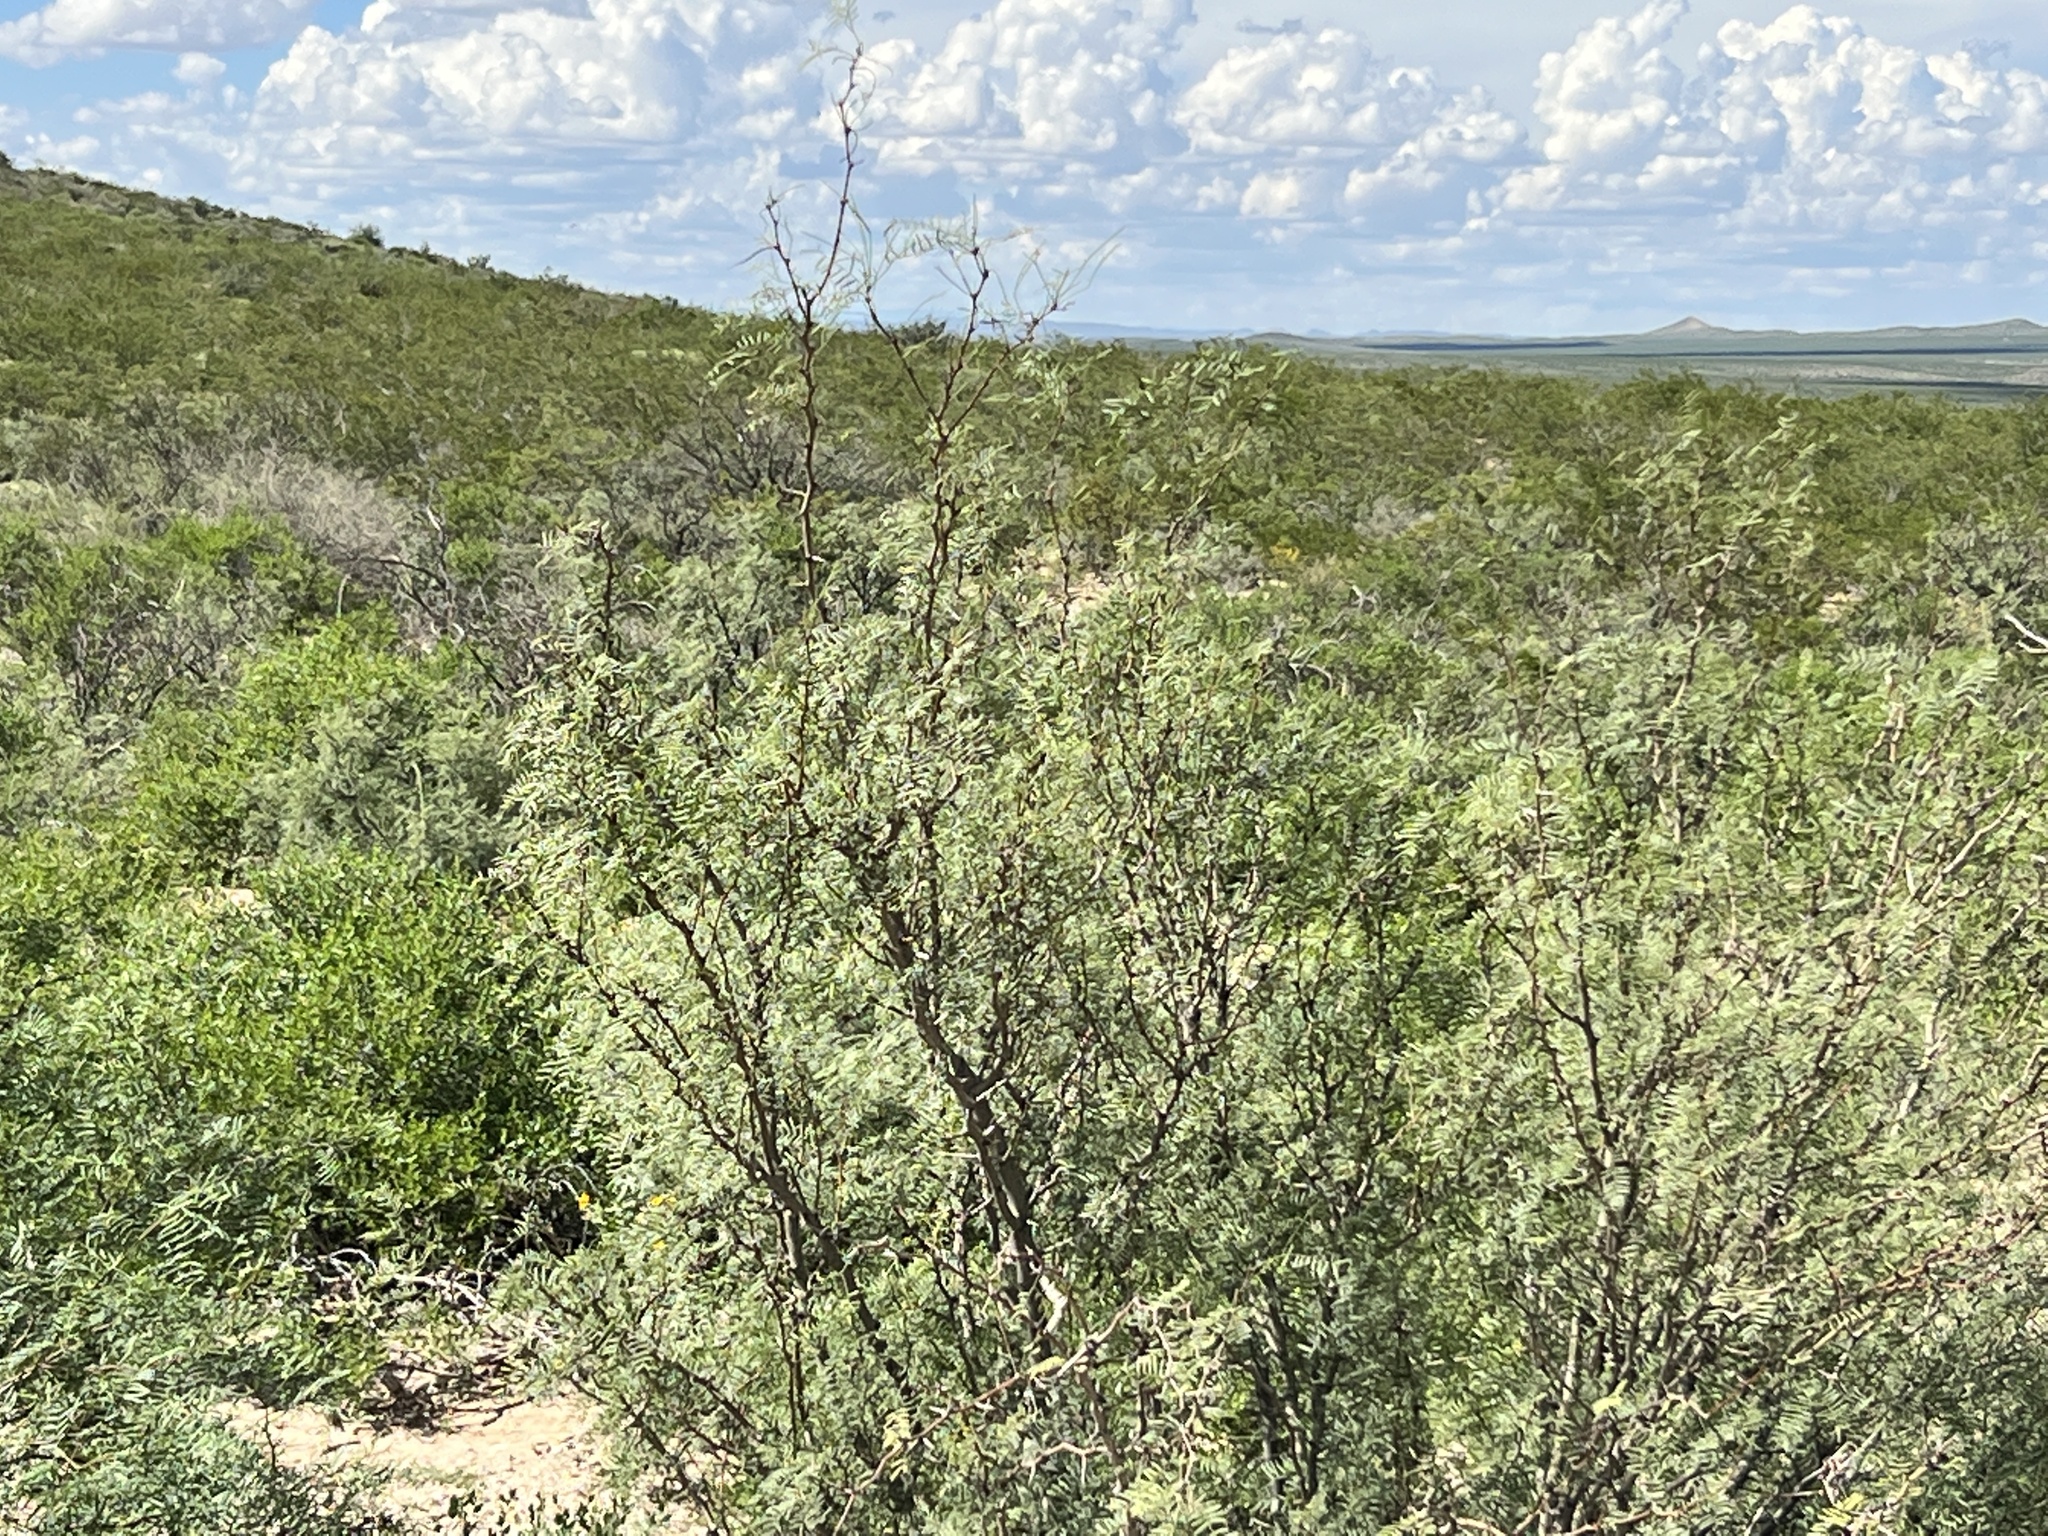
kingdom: Plantae
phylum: Tracheophyta
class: Magnoliopsida
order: Fabales
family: Fabaceae
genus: Prosopis
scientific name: Prosopis glandulosa
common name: Honey mesquite
